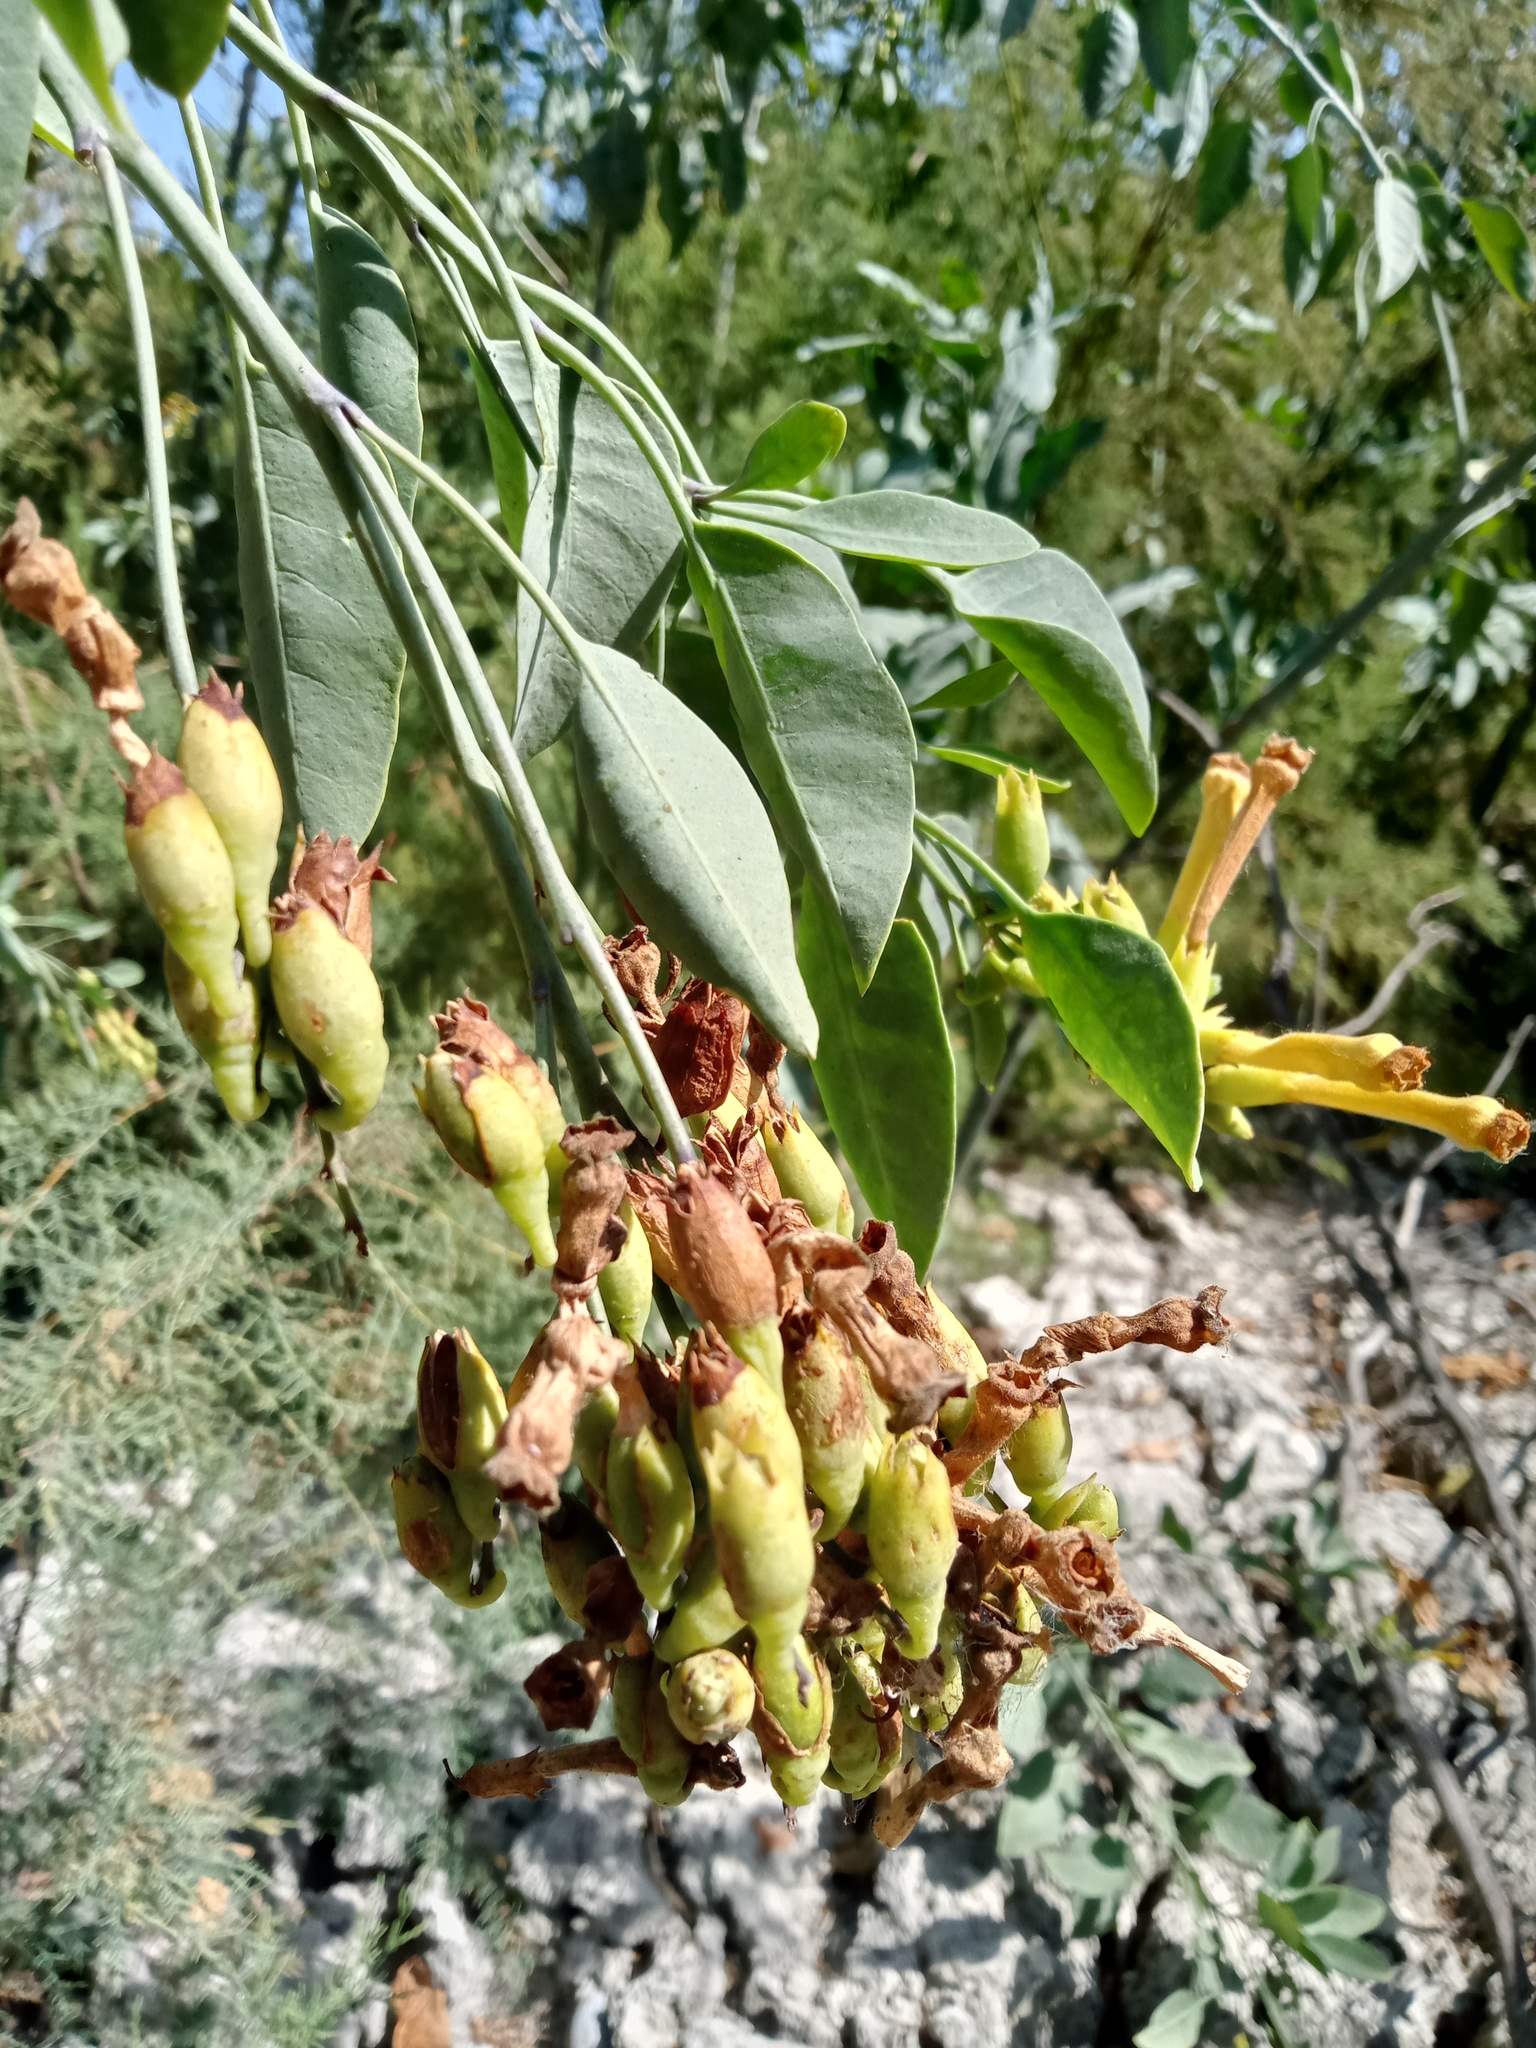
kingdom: Plantae
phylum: Tracheophyta
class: Magnoliopsida
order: Solanales
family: Solanaceae
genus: Nicotiana
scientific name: Nicotiana glauca
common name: Tree tobacco
